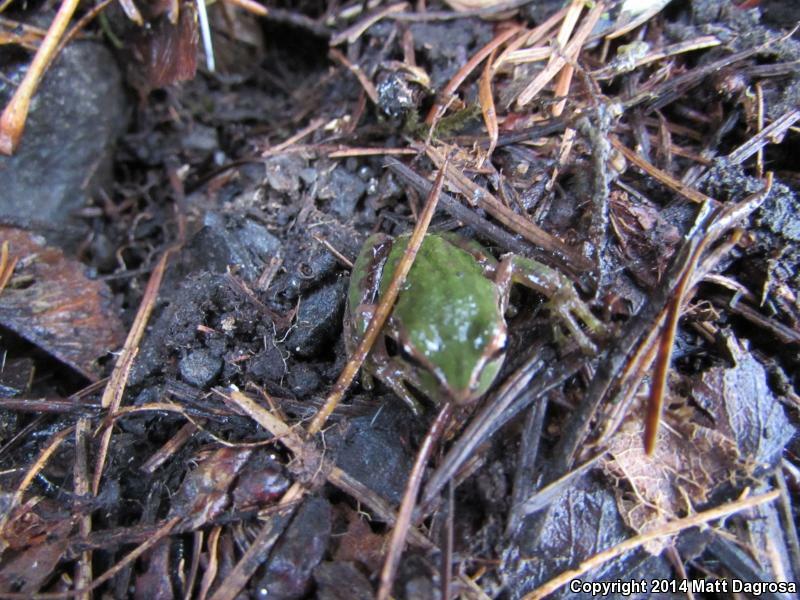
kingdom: Animalia
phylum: Chordata
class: Amphibia
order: Anura
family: Hylidae
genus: Pseudacris
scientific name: Pseudacris regilla
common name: Pacific chorus frog
